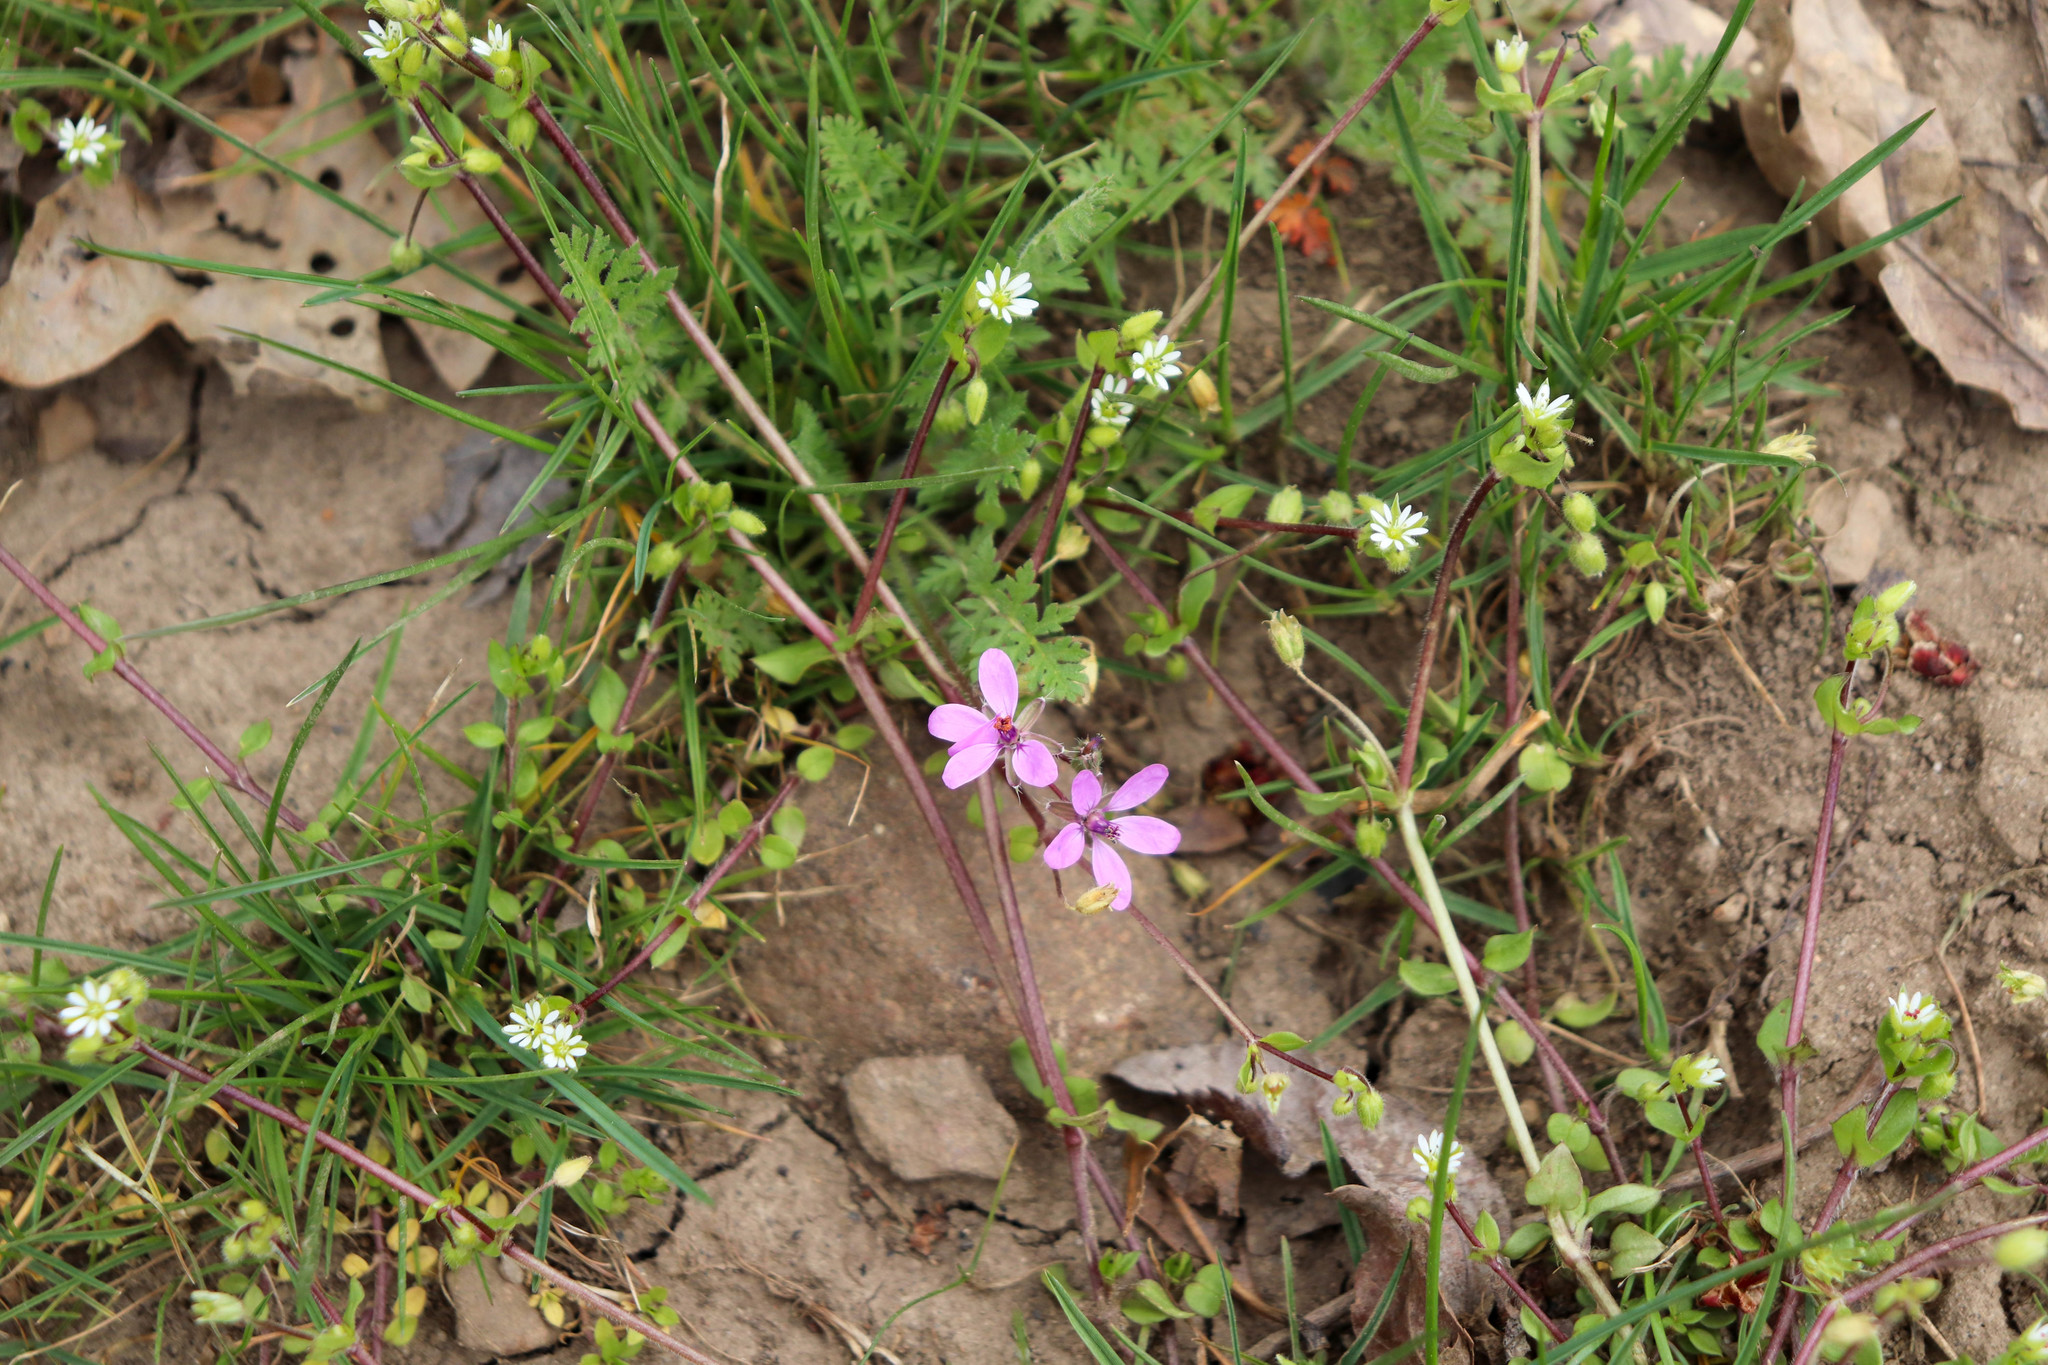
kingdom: Plantae
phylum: Tracheophyta
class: Magnoliopsida
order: Geraniales
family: Geraniaceae
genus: Erodium
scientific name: Erodium cicutarium
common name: Common stork's-bill
